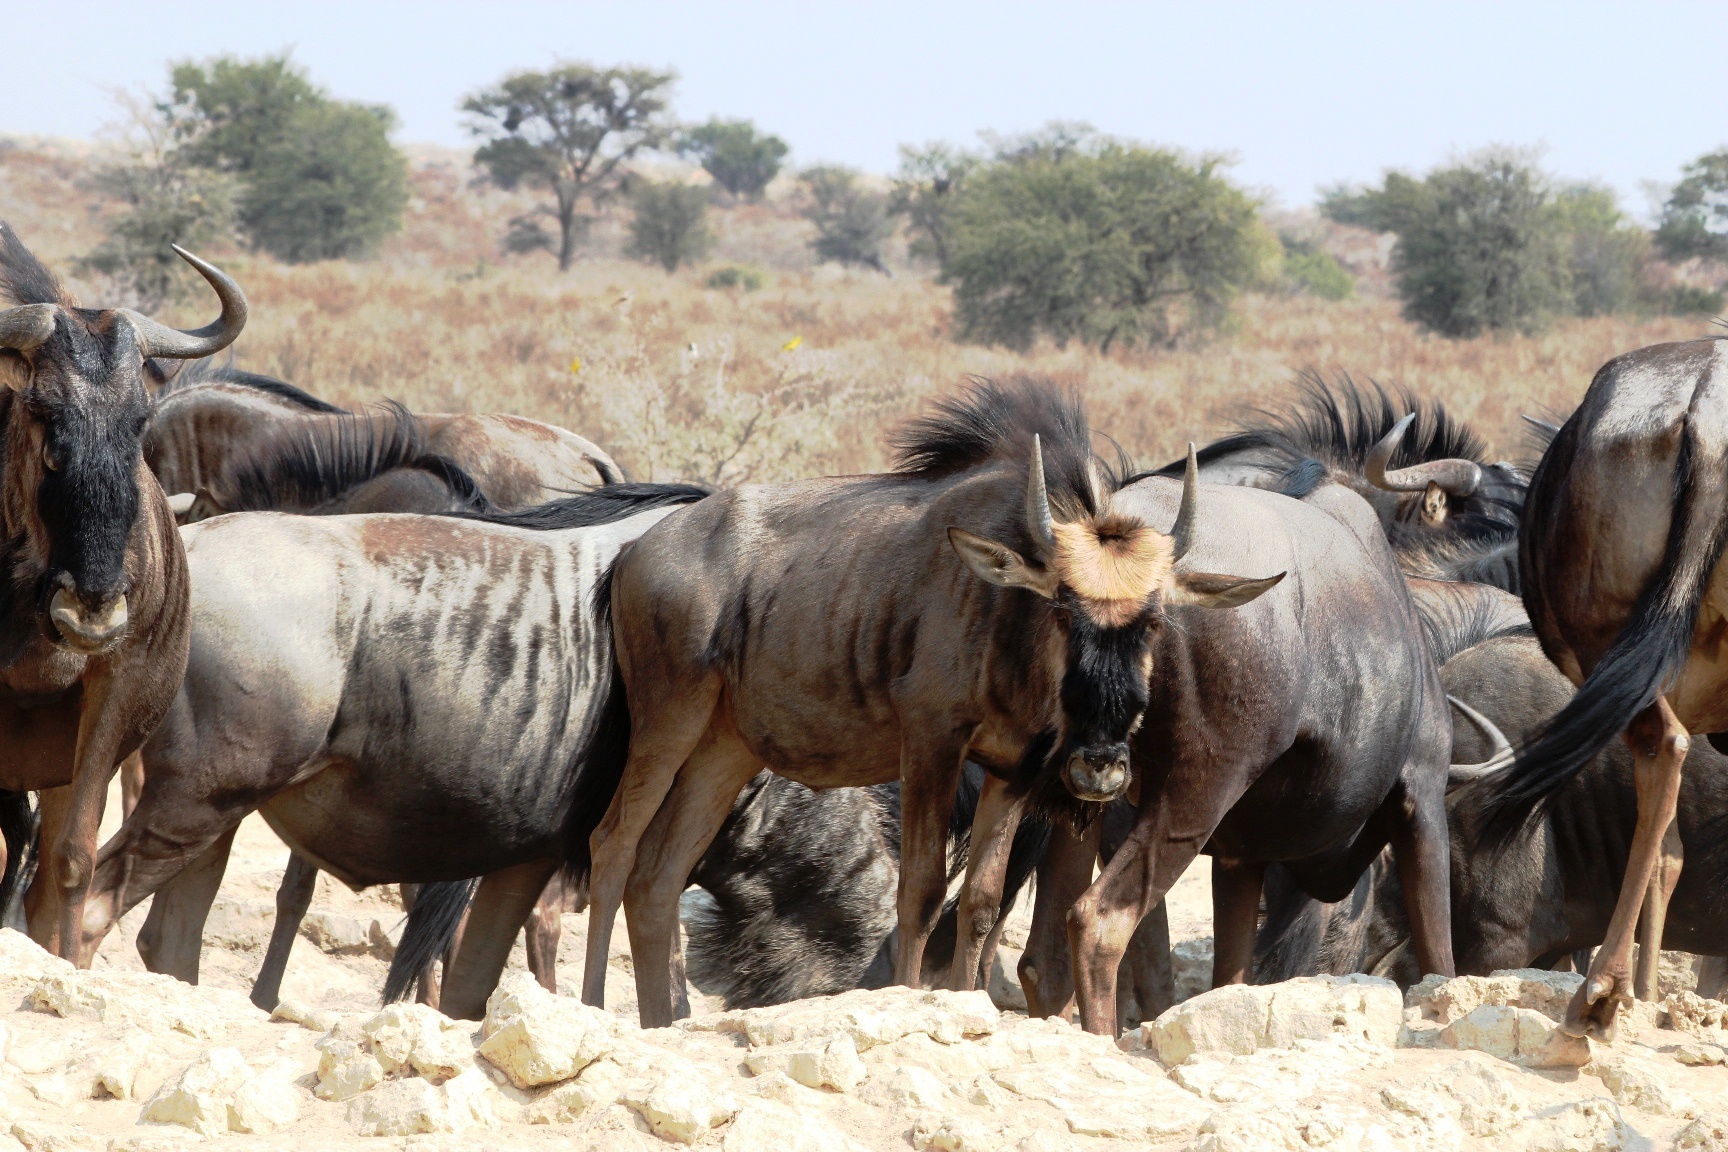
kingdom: Animalia
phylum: Chordata
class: Mammalia
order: Artiodactyla
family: Bovidae
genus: Connochaetes
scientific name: Connochaetes taurinus
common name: Blue wildebeest
